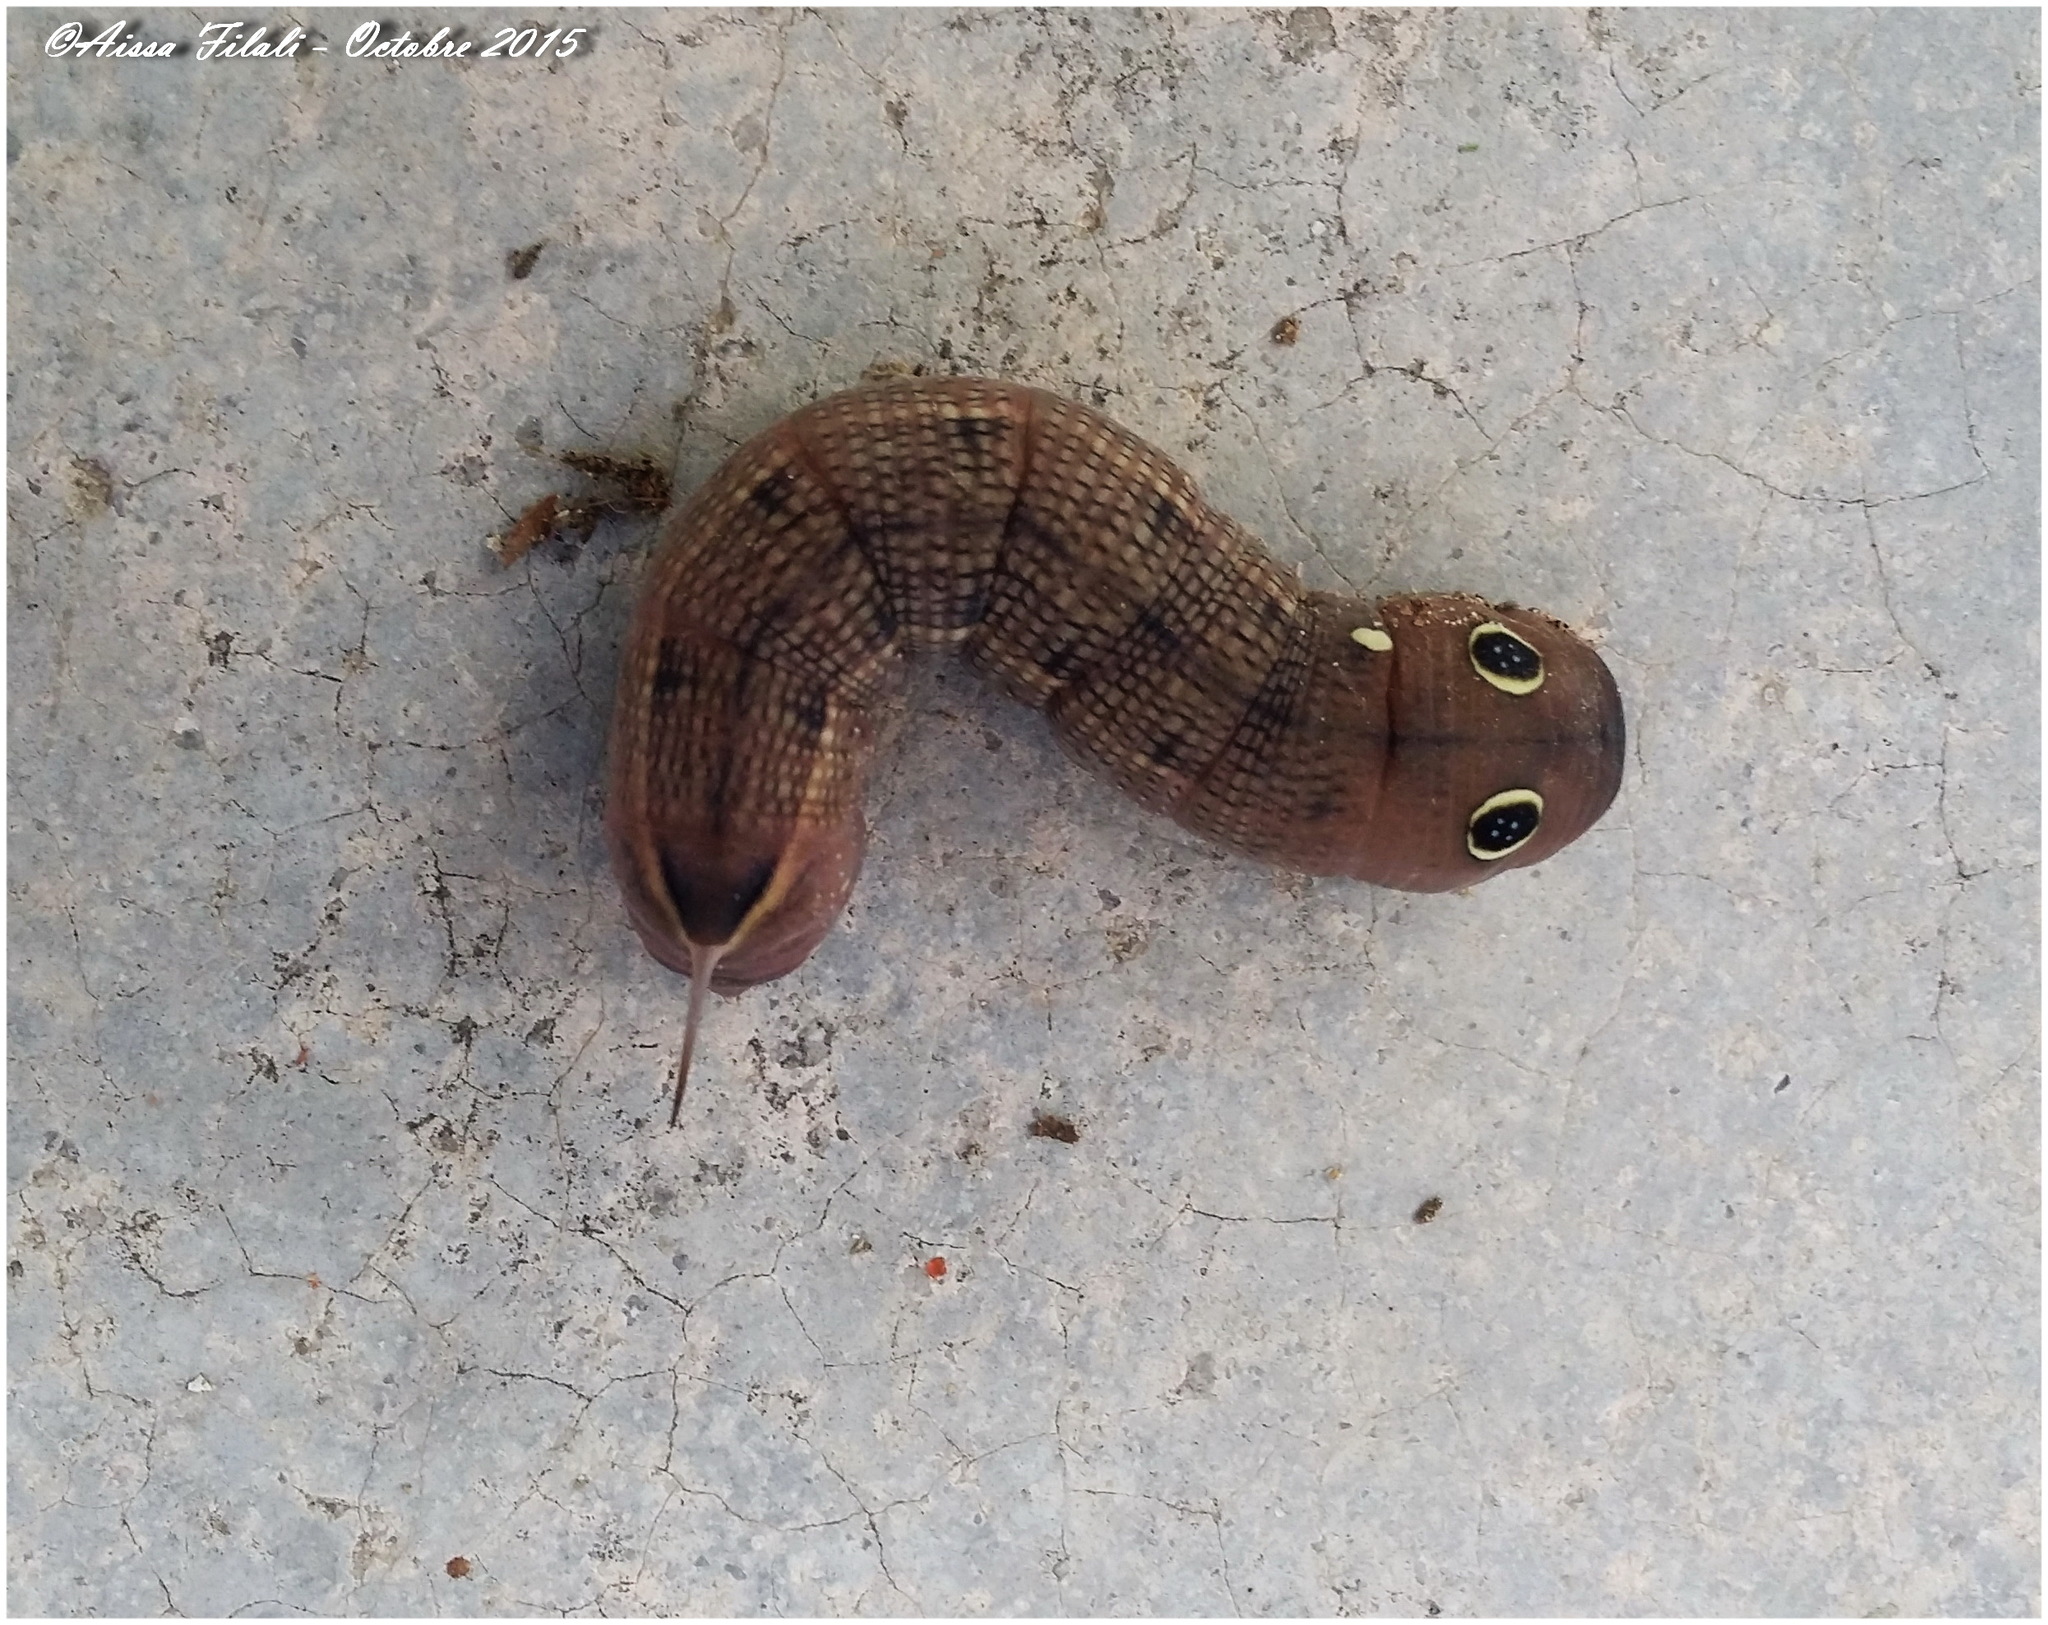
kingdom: Animalia
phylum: Arthropoda
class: Insecta
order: Lepidoptera
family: Sphingidae
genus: Hippotion
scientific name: Hippotion celerio
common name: Silver-striped hawk-moth
